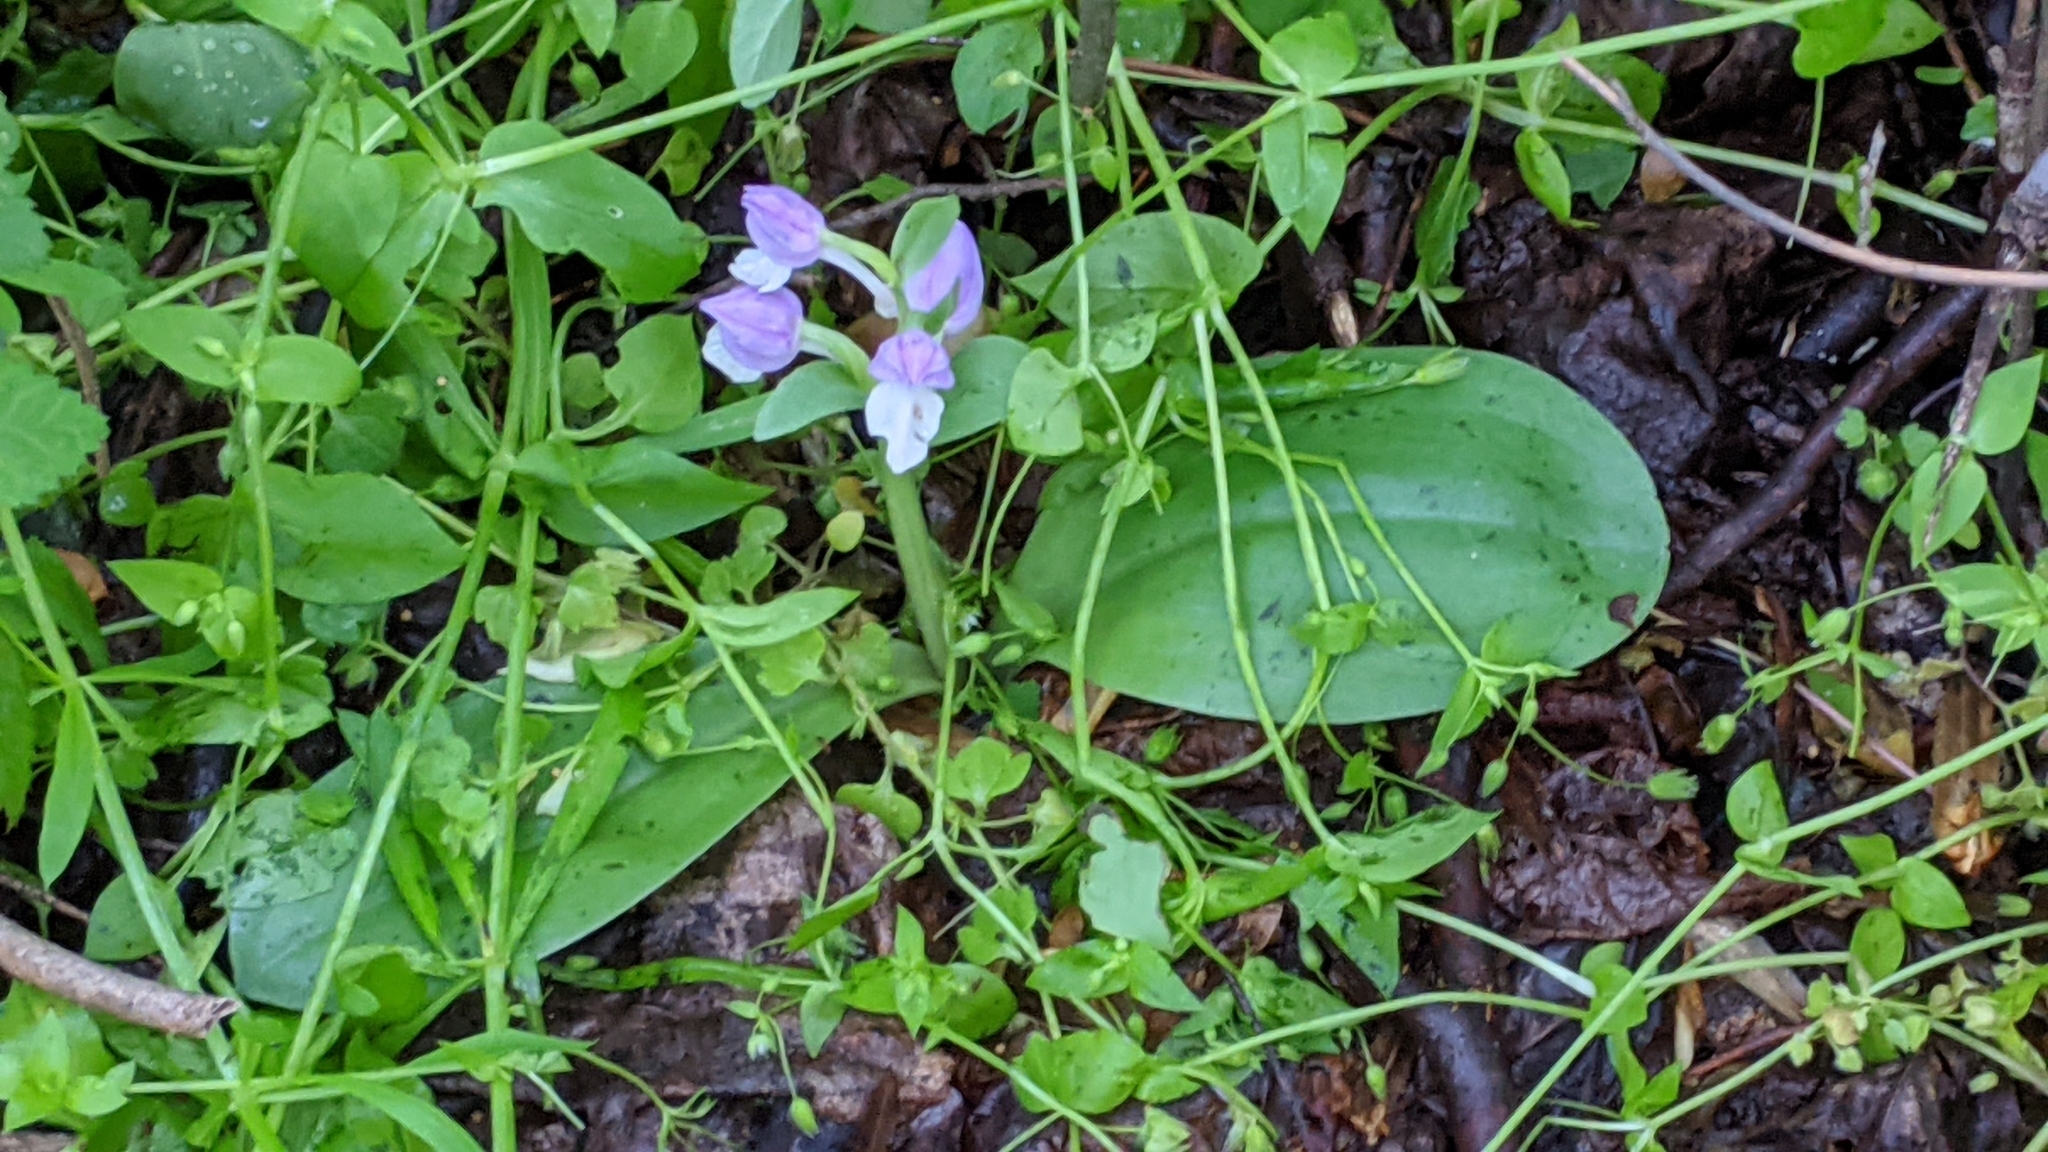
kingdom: Plantae
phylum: Tracheophyta
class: Liliopsida
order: Asparagales
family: Orchidaceae
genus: Galearis
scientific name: Galearis spectabilis
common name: Purple-hooded orchis
